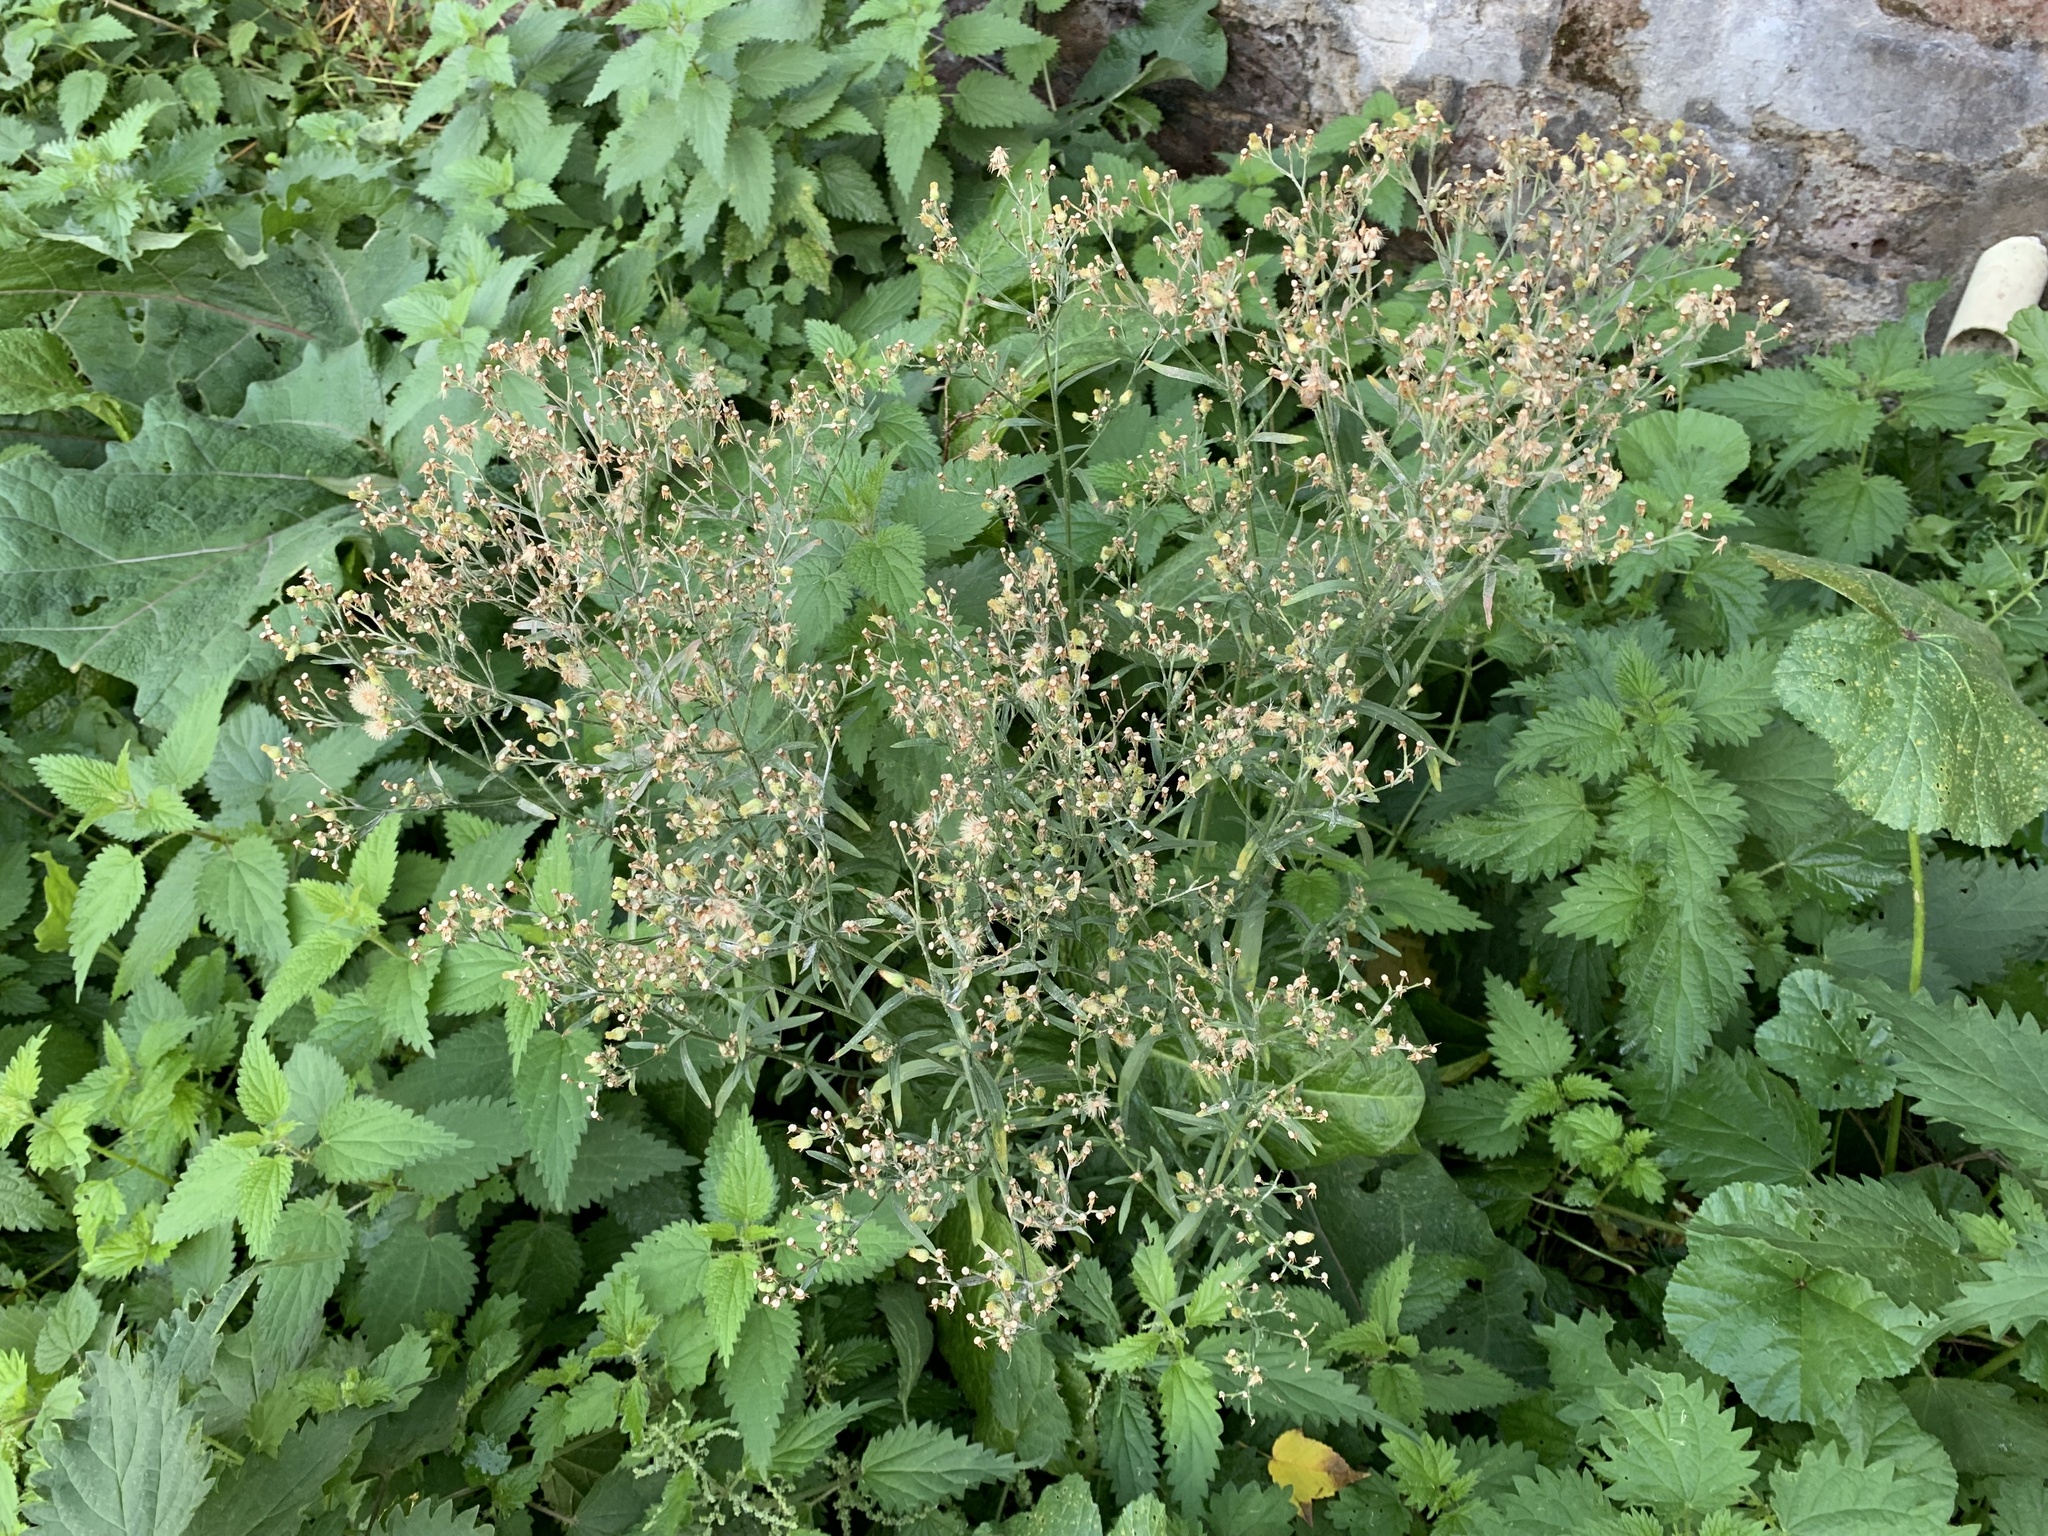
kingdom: Plantae
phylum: Tracheophyta
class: Magnoliopsida
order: Asterales
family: Asteraceae
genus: Erigeron
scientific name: Erigeron sumatrensis
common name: Daisy
